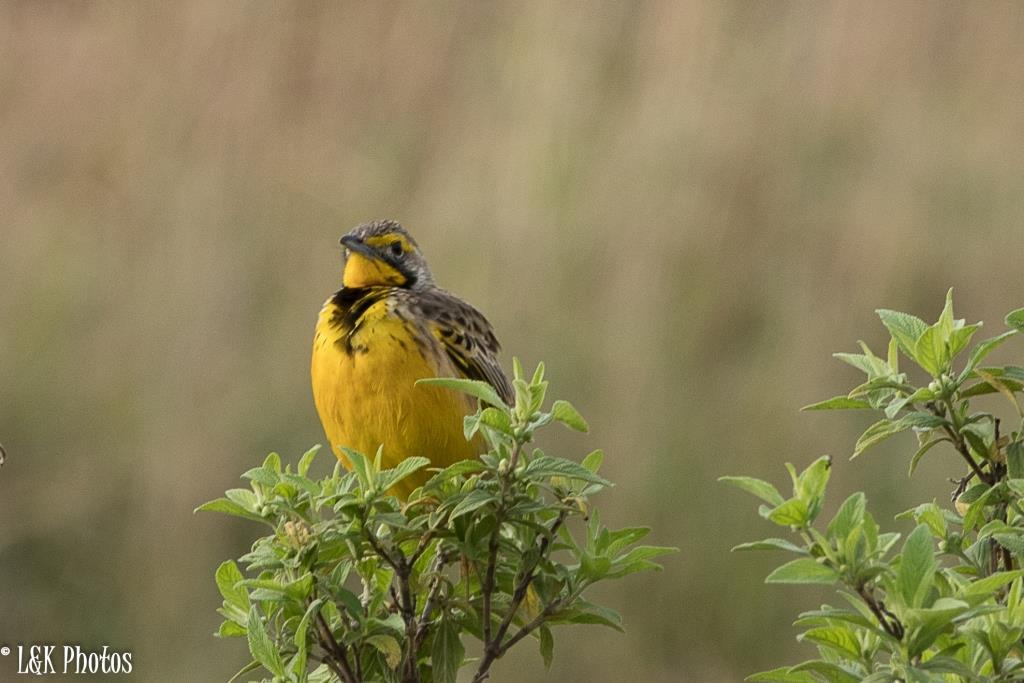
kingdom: Animalia
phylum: Chordata
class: Aves
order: Passeriformes
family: Motacillidae
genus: Macronyx
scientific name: Macronyx croceus
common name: Yellow-throated longclaw
